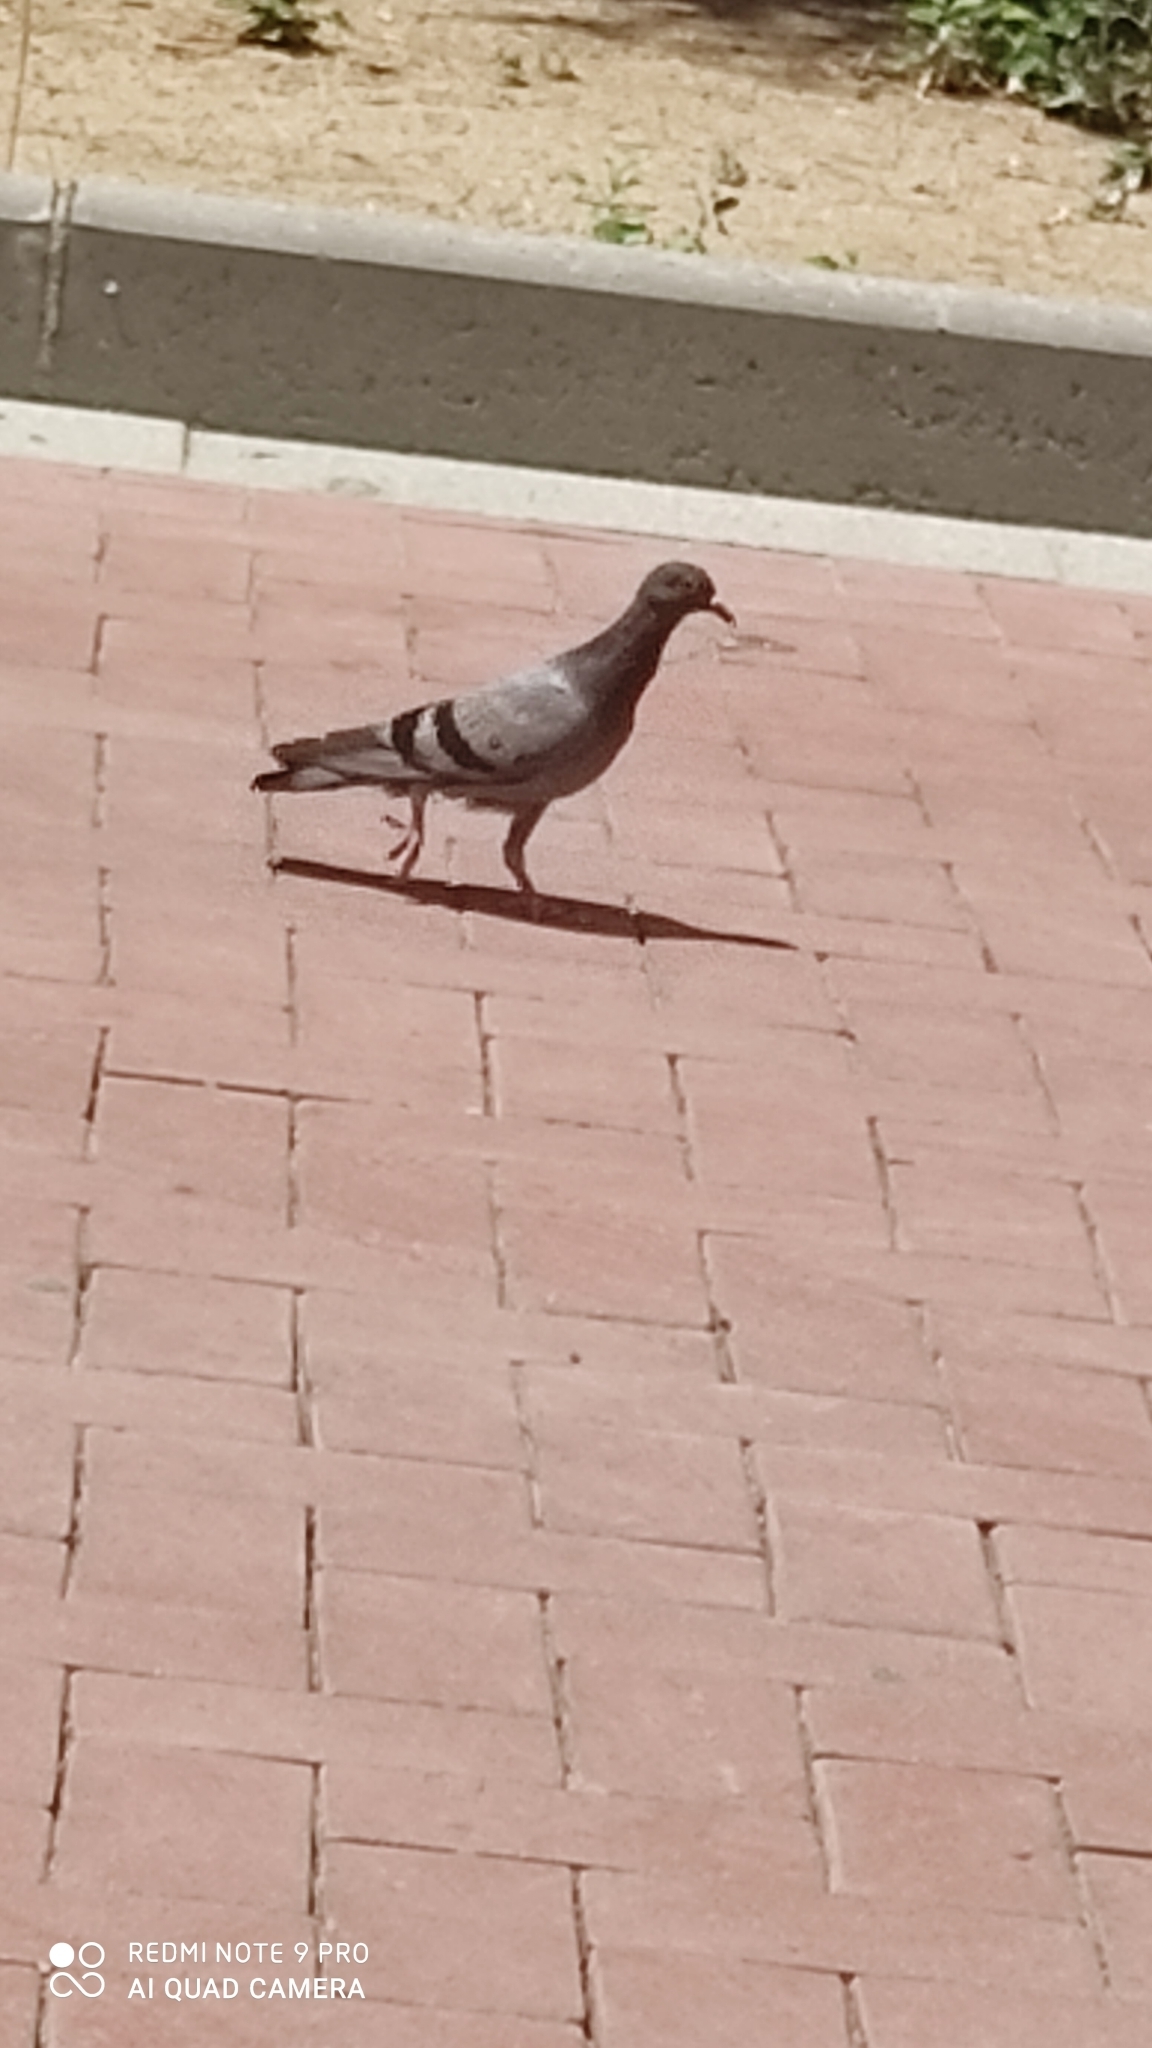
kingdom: Animalia
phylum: Chordata
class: Aves
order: Columbiformes
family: Columbidae
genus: Columba
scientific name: Columba livia
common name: Rock pigeon
